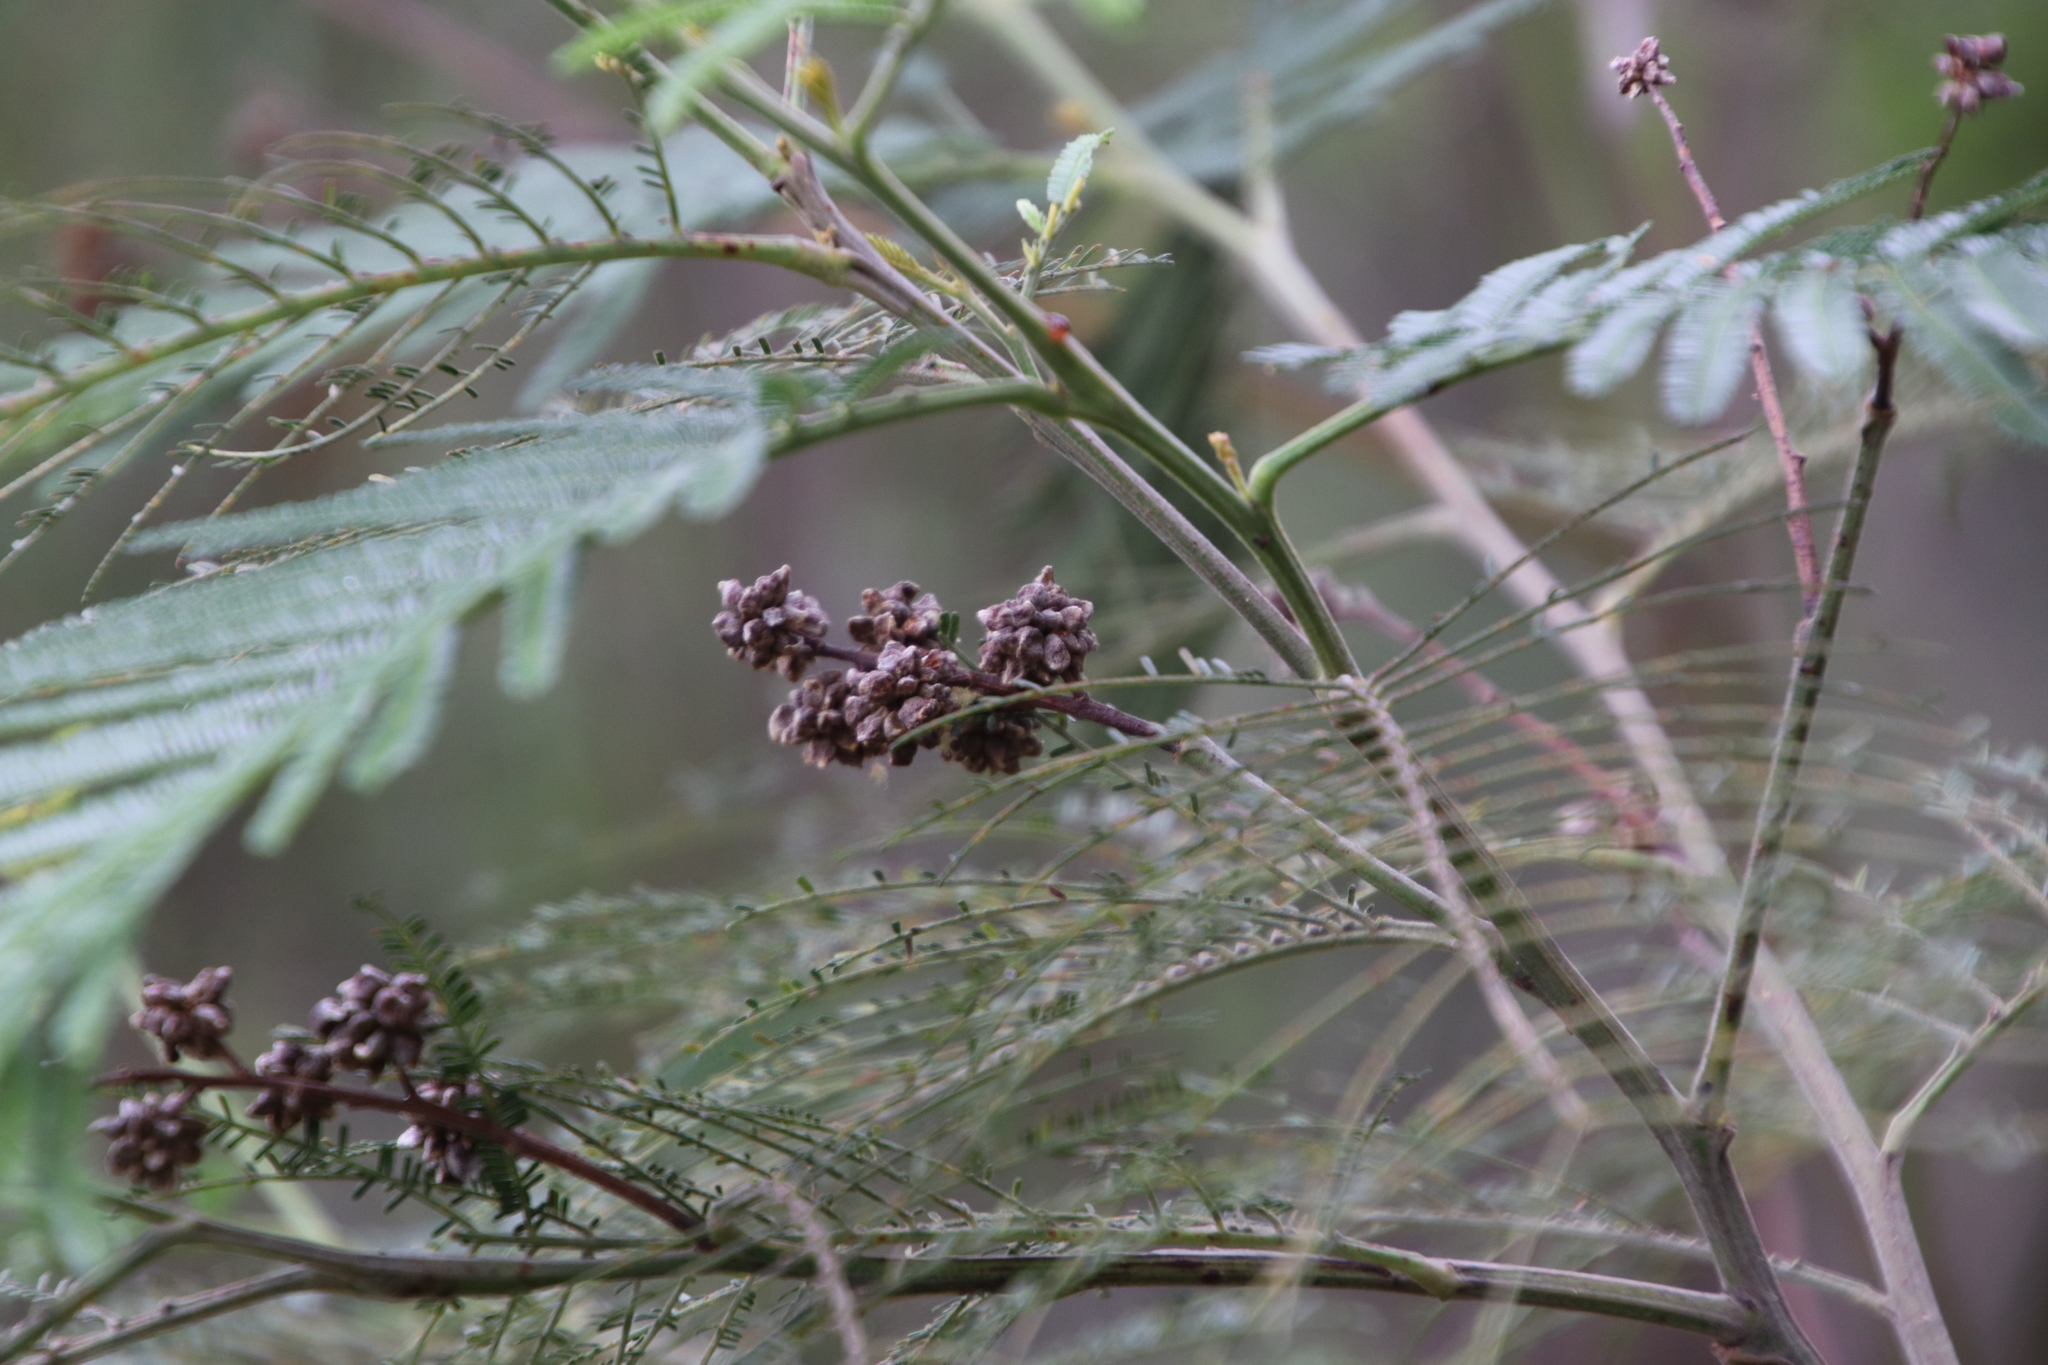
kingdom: Animalia
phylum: Arthropoda
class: Insecta
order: Diptera
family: Cecidomyiidae
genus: Dasineura
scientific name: Dasineura rubiformis
